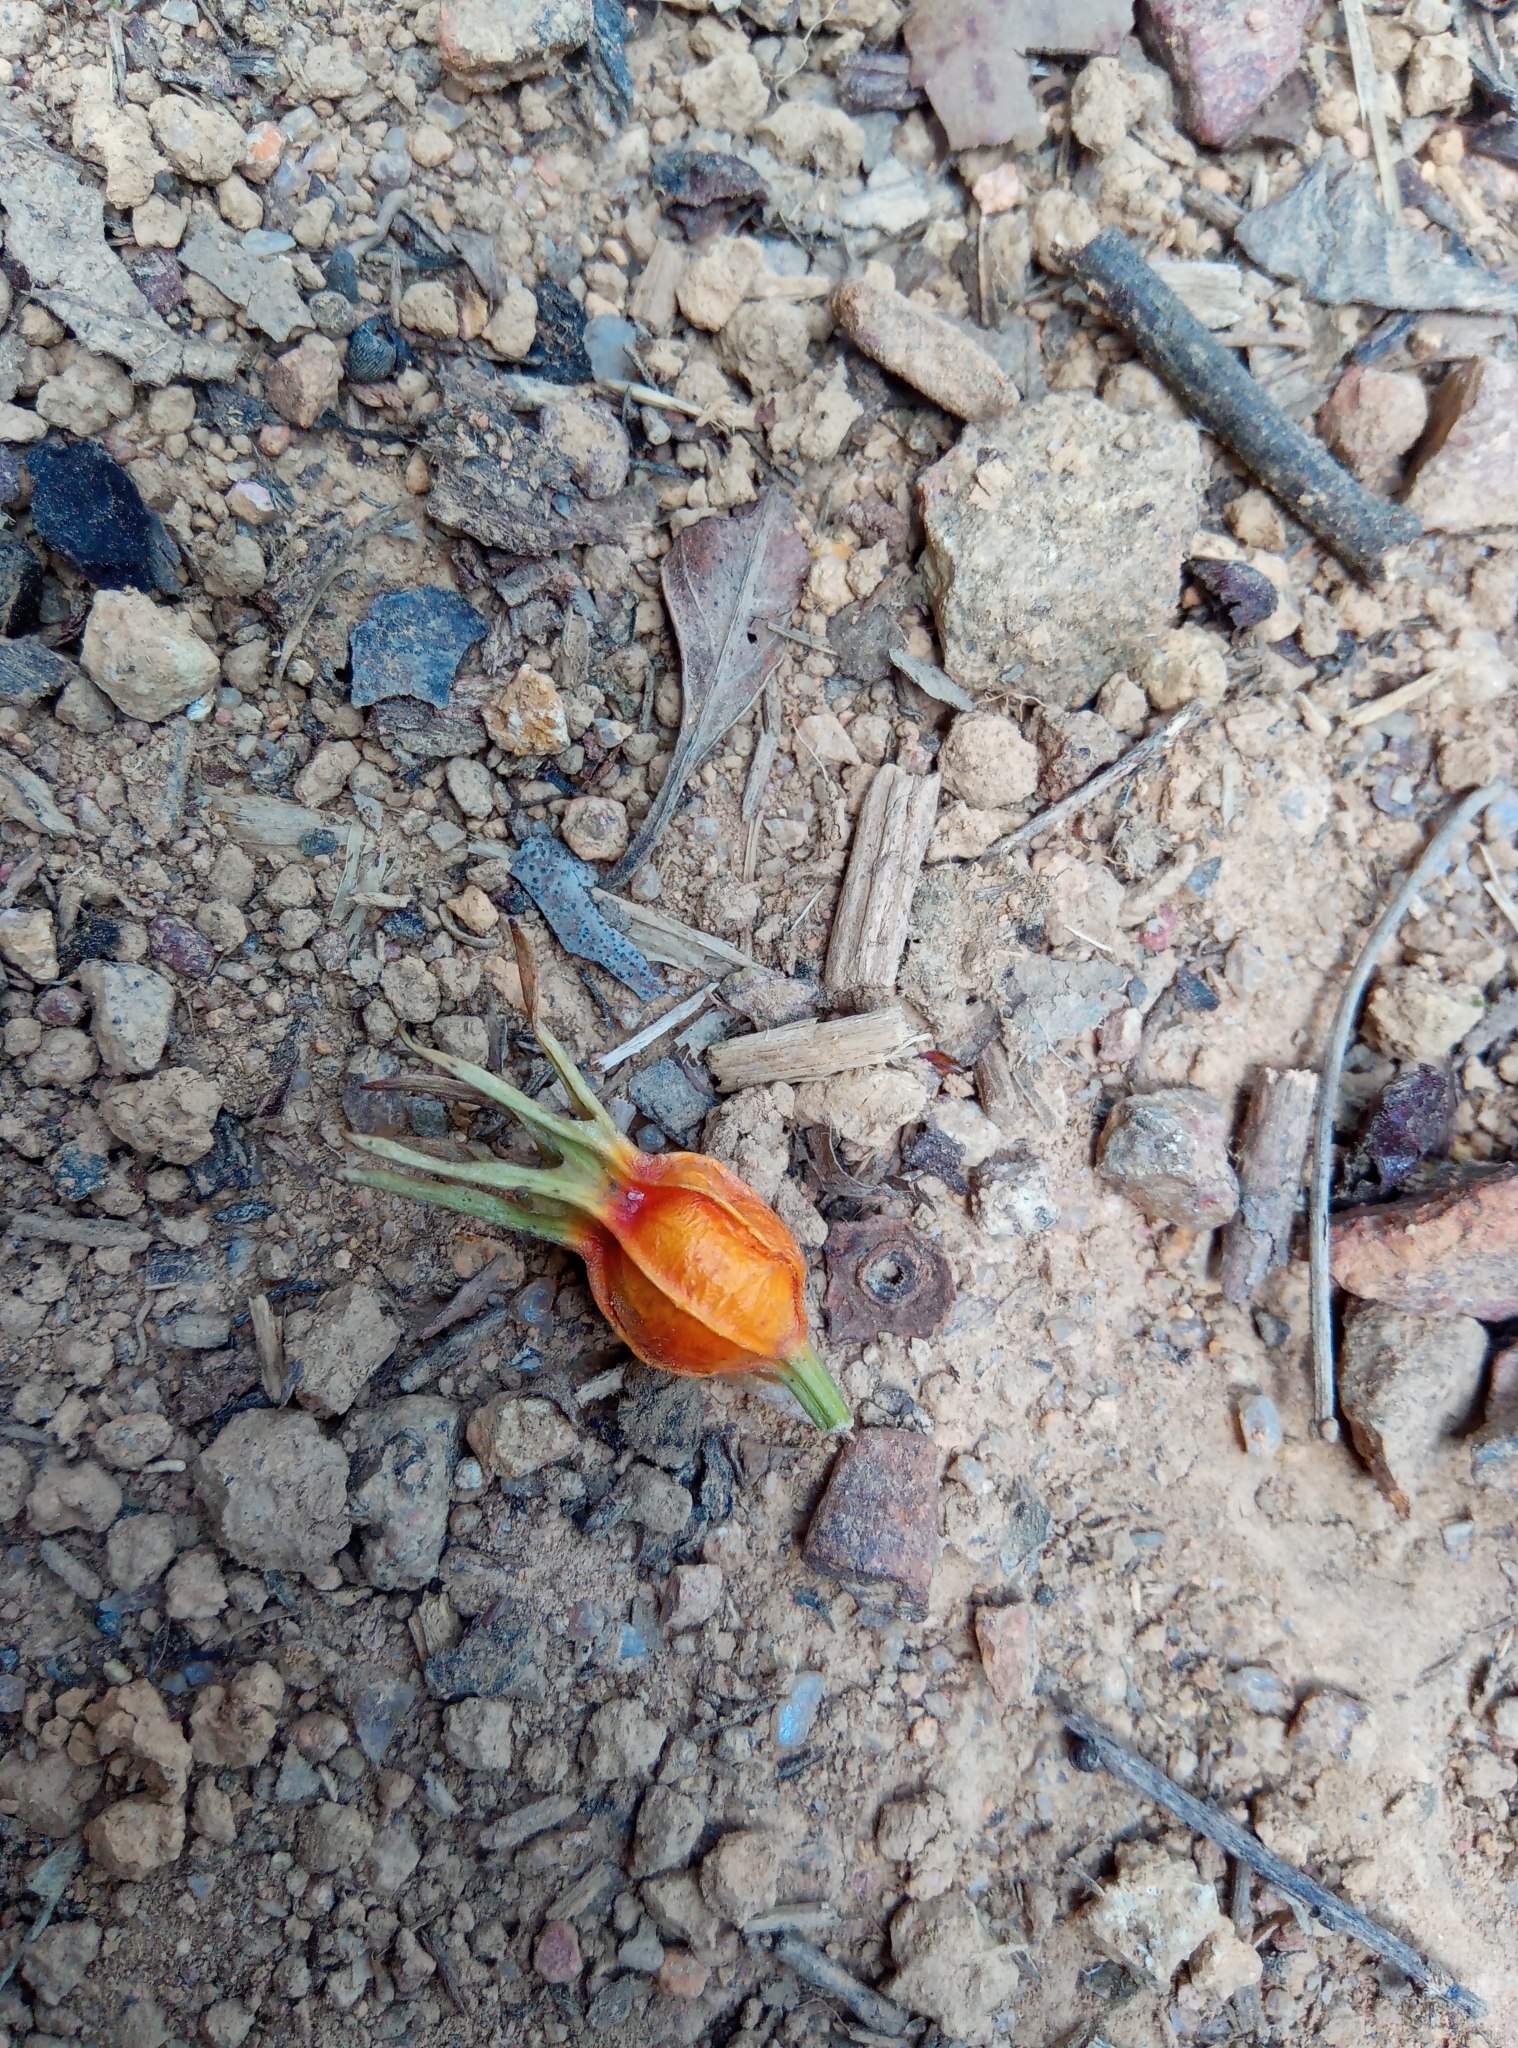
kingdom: Plantae
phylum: Tracheophyta
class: Magnoliopsida
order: Gentianales
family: Rubiaceae
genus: Gardenia
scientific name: Gardenia jasminoides
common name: Cape-jasmine
